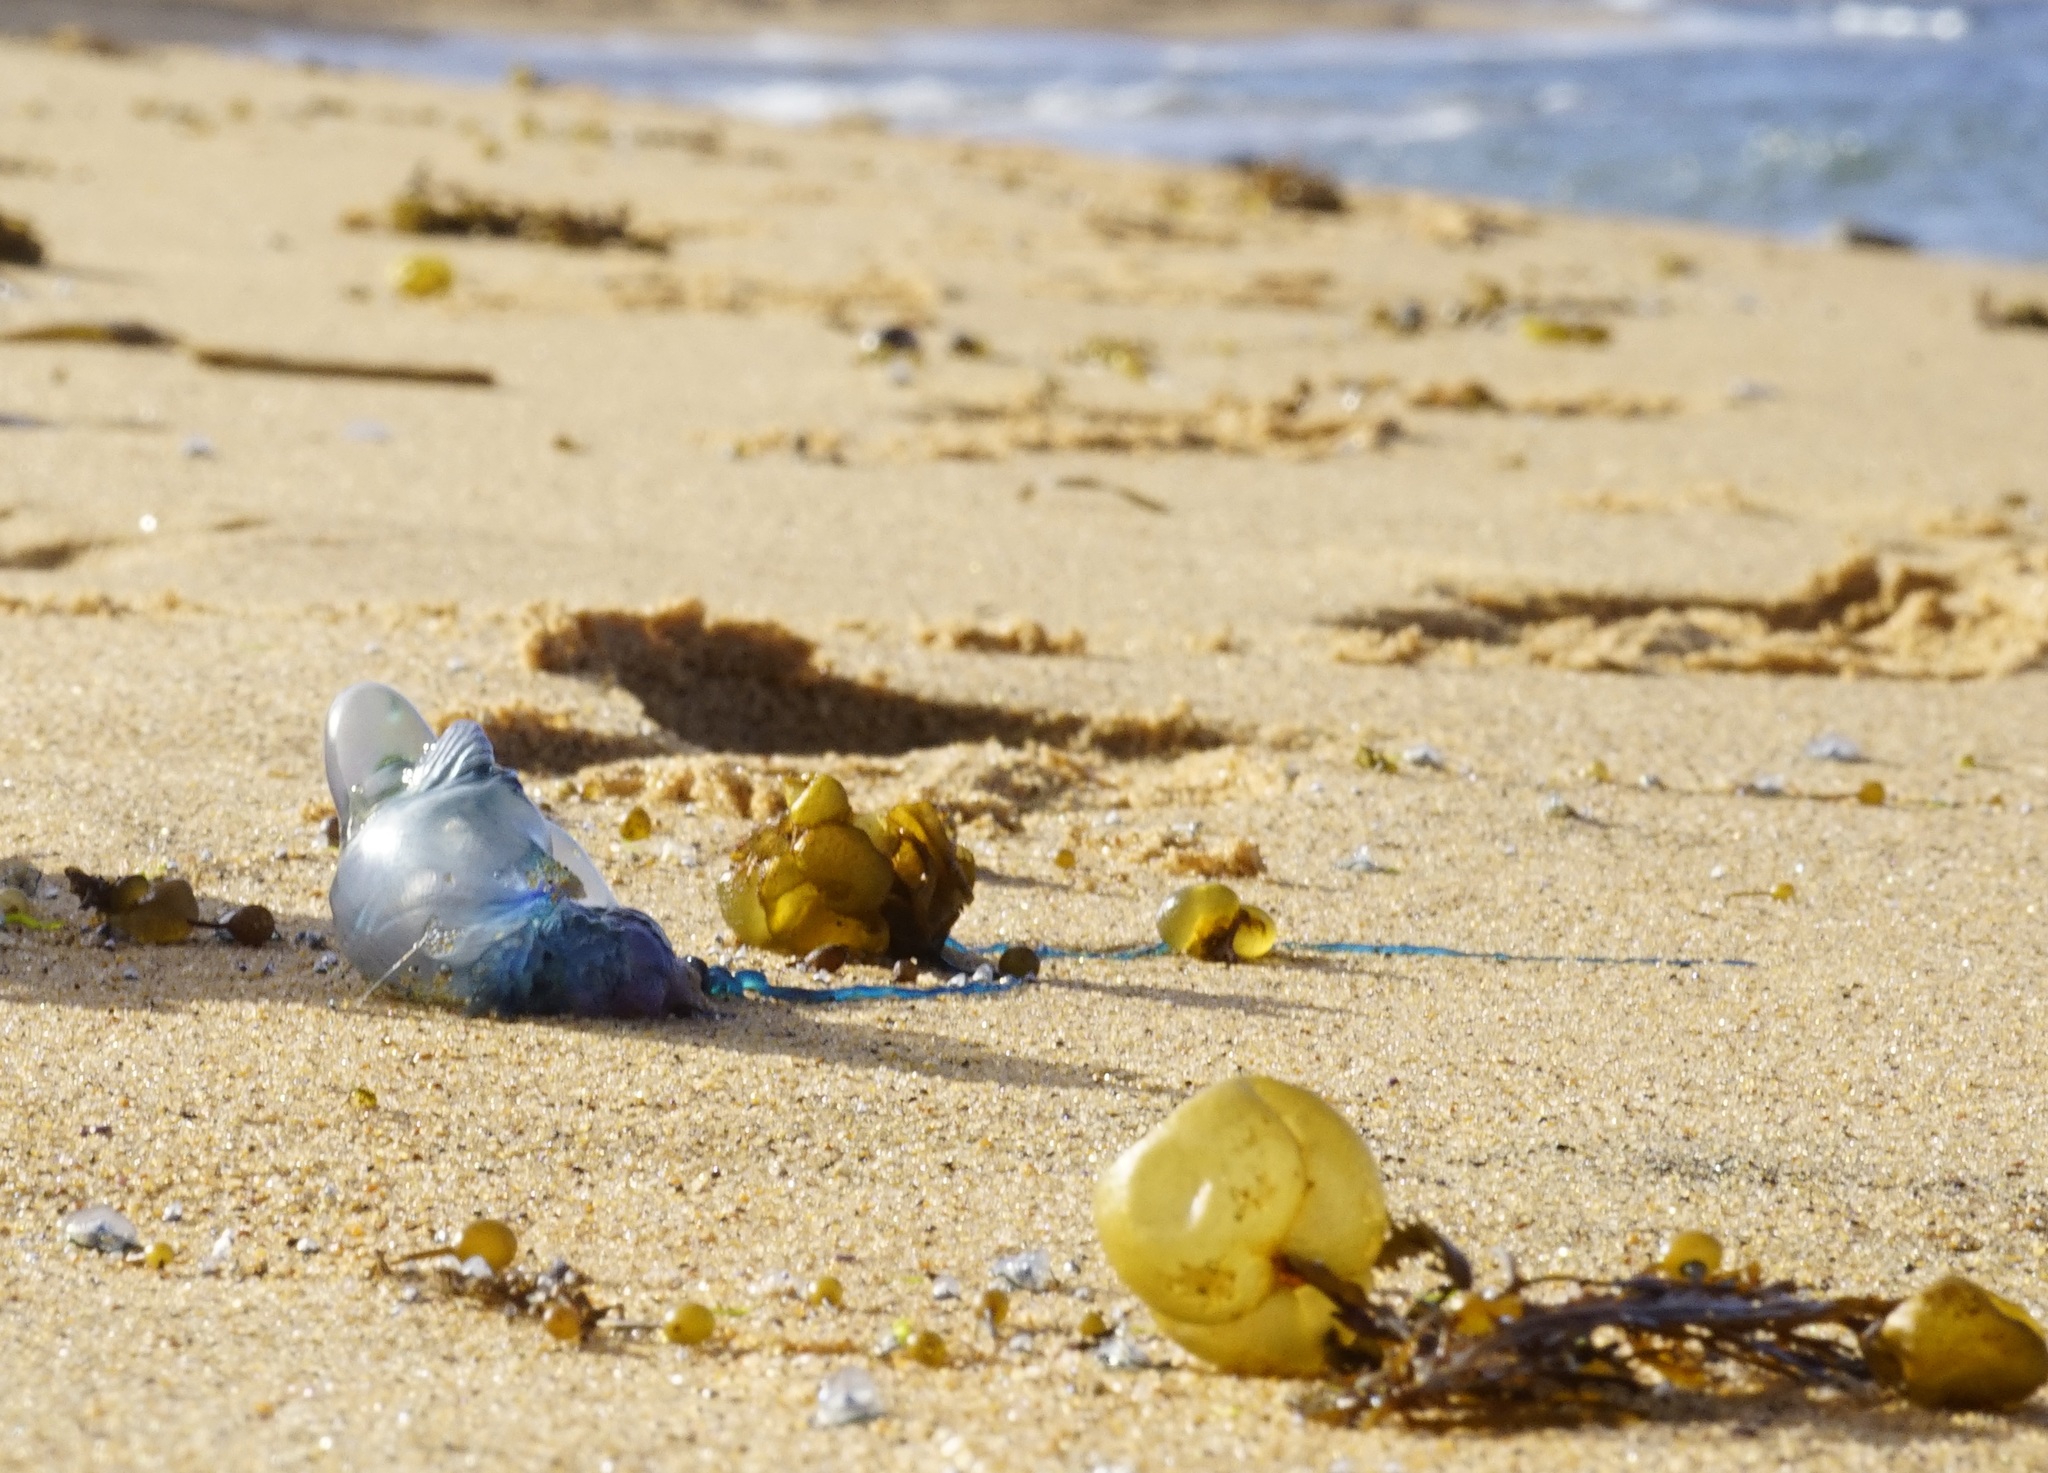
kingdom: Animalia
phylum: Cnidaria
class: Hydrozoa
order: Siphonophorae
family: Physaliidae
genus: Physalia
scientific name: Physalia physalis
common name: Portuguese man-of-war
